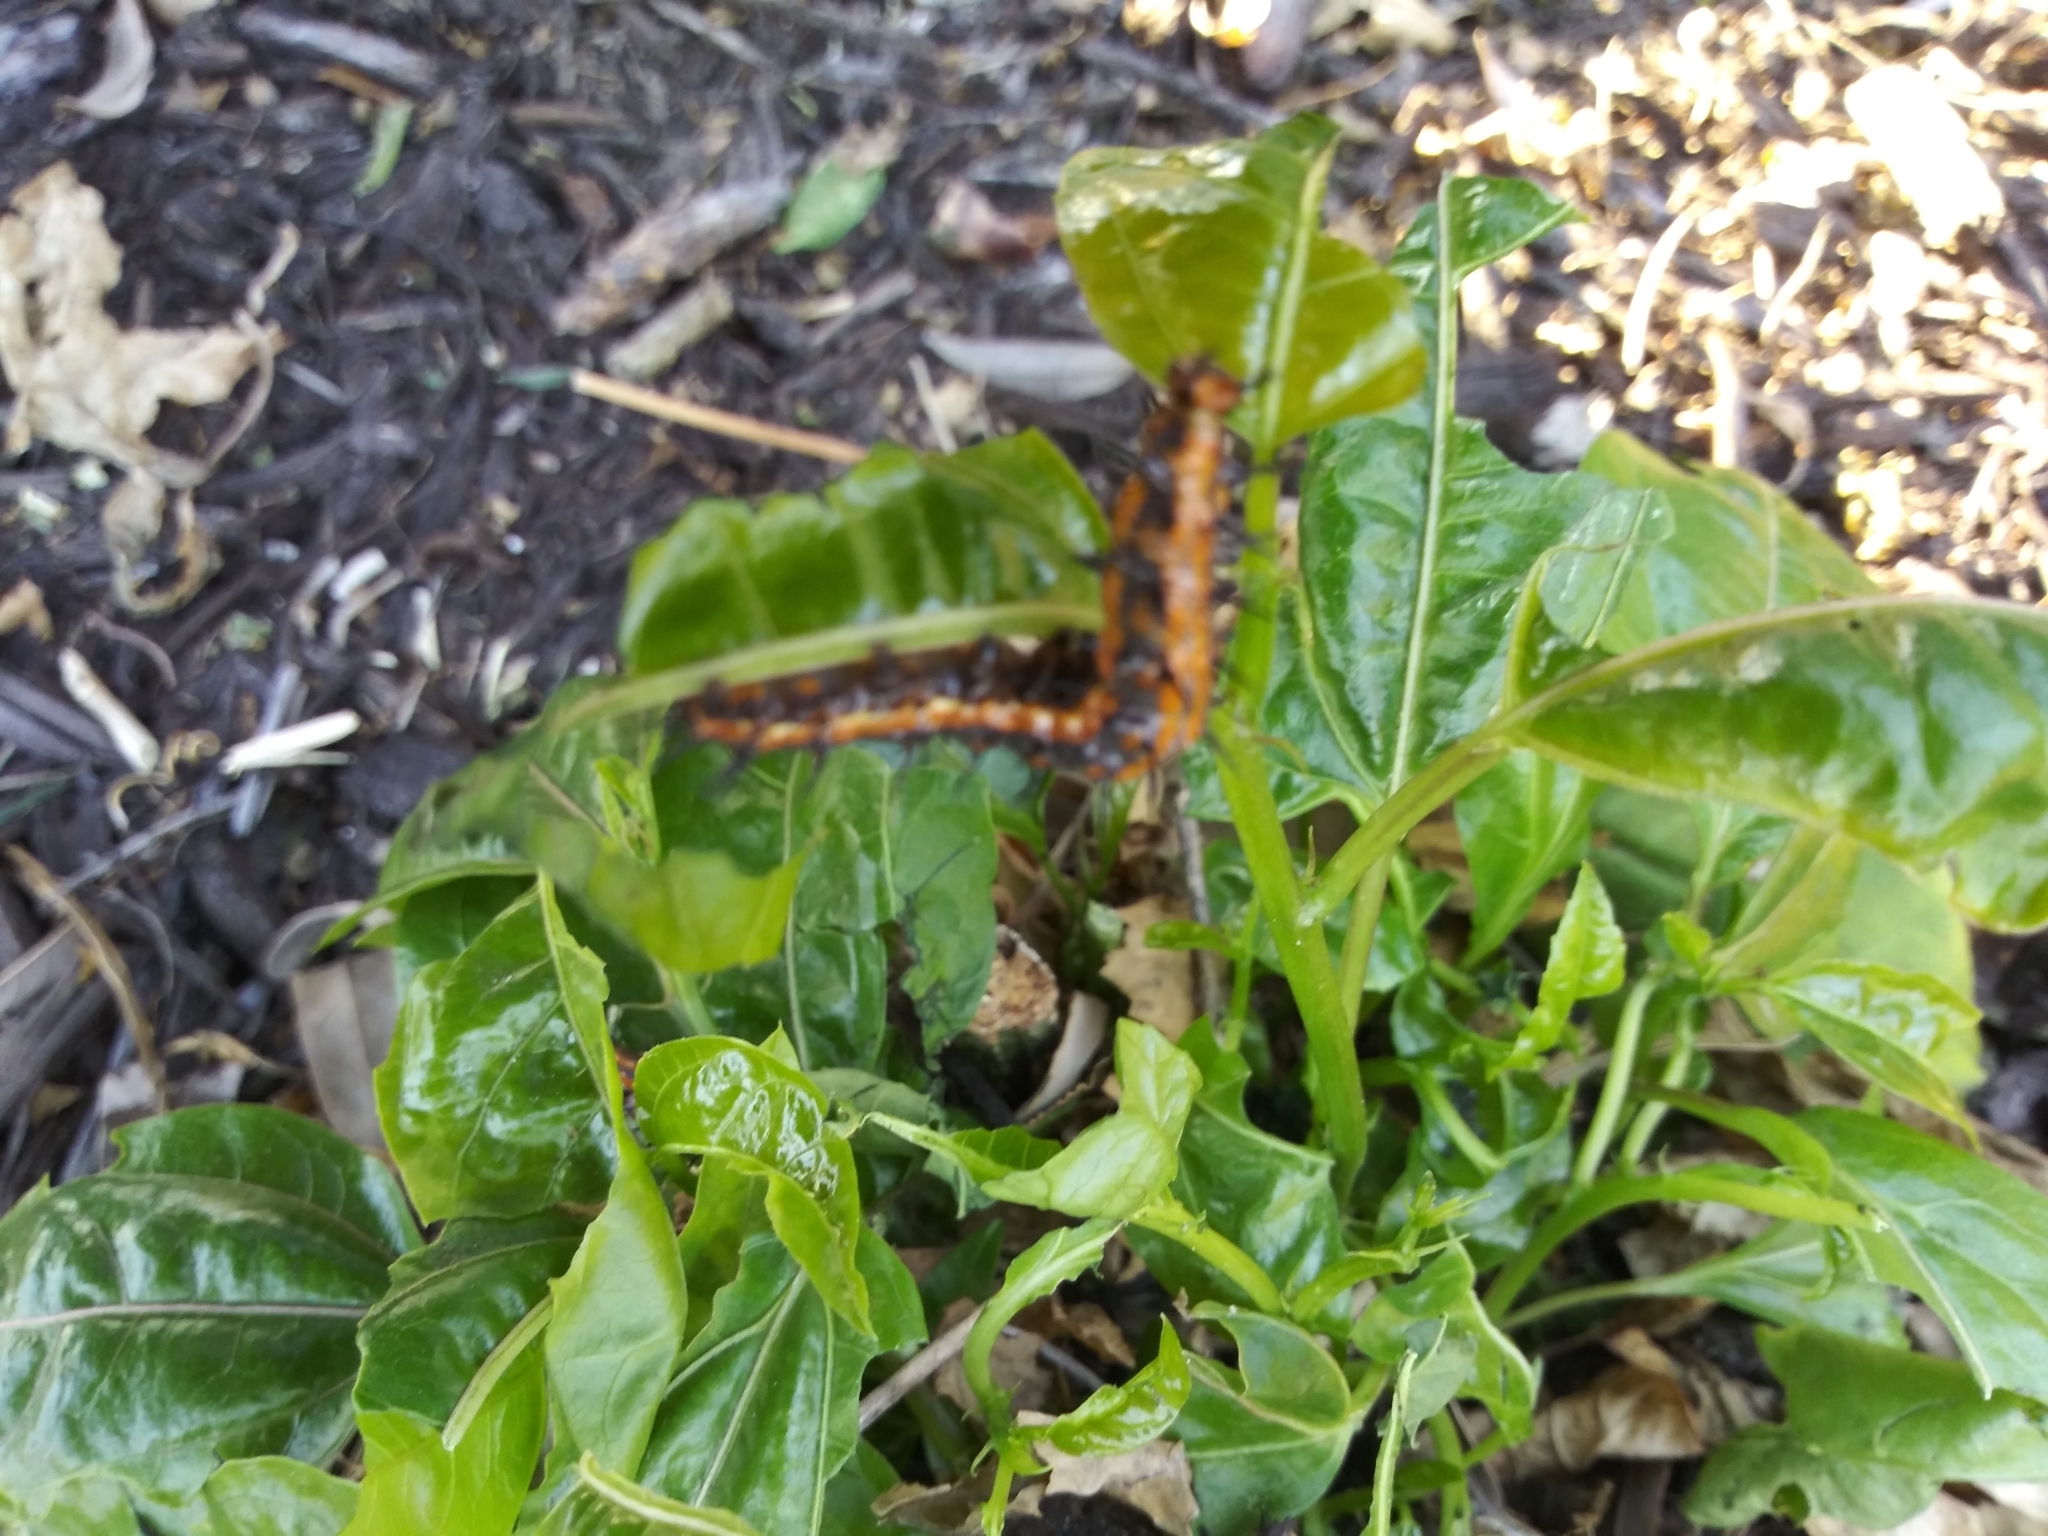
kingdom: Animalia
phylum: Arthropoda
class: Insecta
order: Lepidoptera
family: Nymphalidae
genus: Dione
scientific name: Dione vanillae
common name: Gulf fritillary
